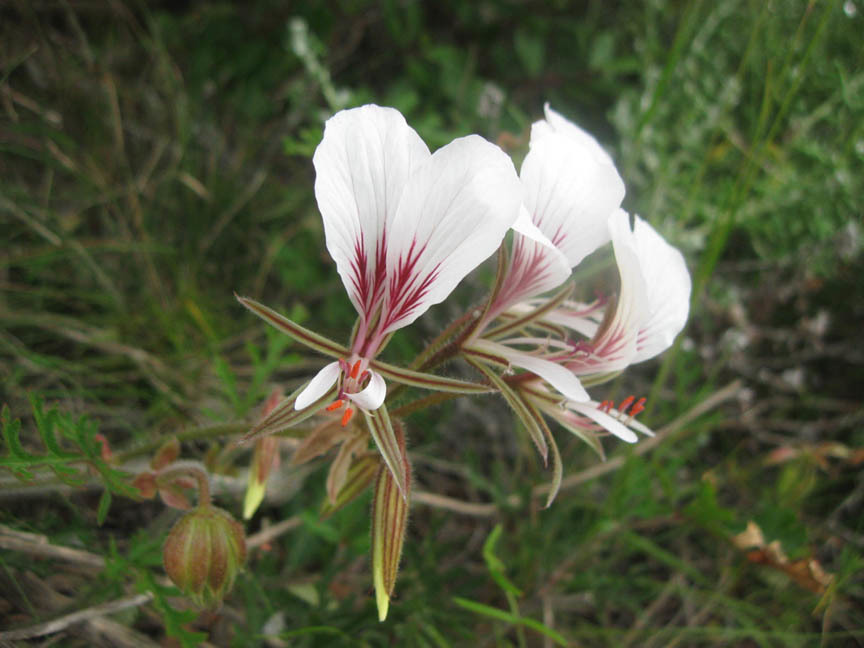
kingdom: Plantae
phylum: Tracheophyta
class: Magnoliopsida
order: Geraniales
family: Geraniaceae
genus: Pelargonium
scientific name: Pelargonium suburbanum
